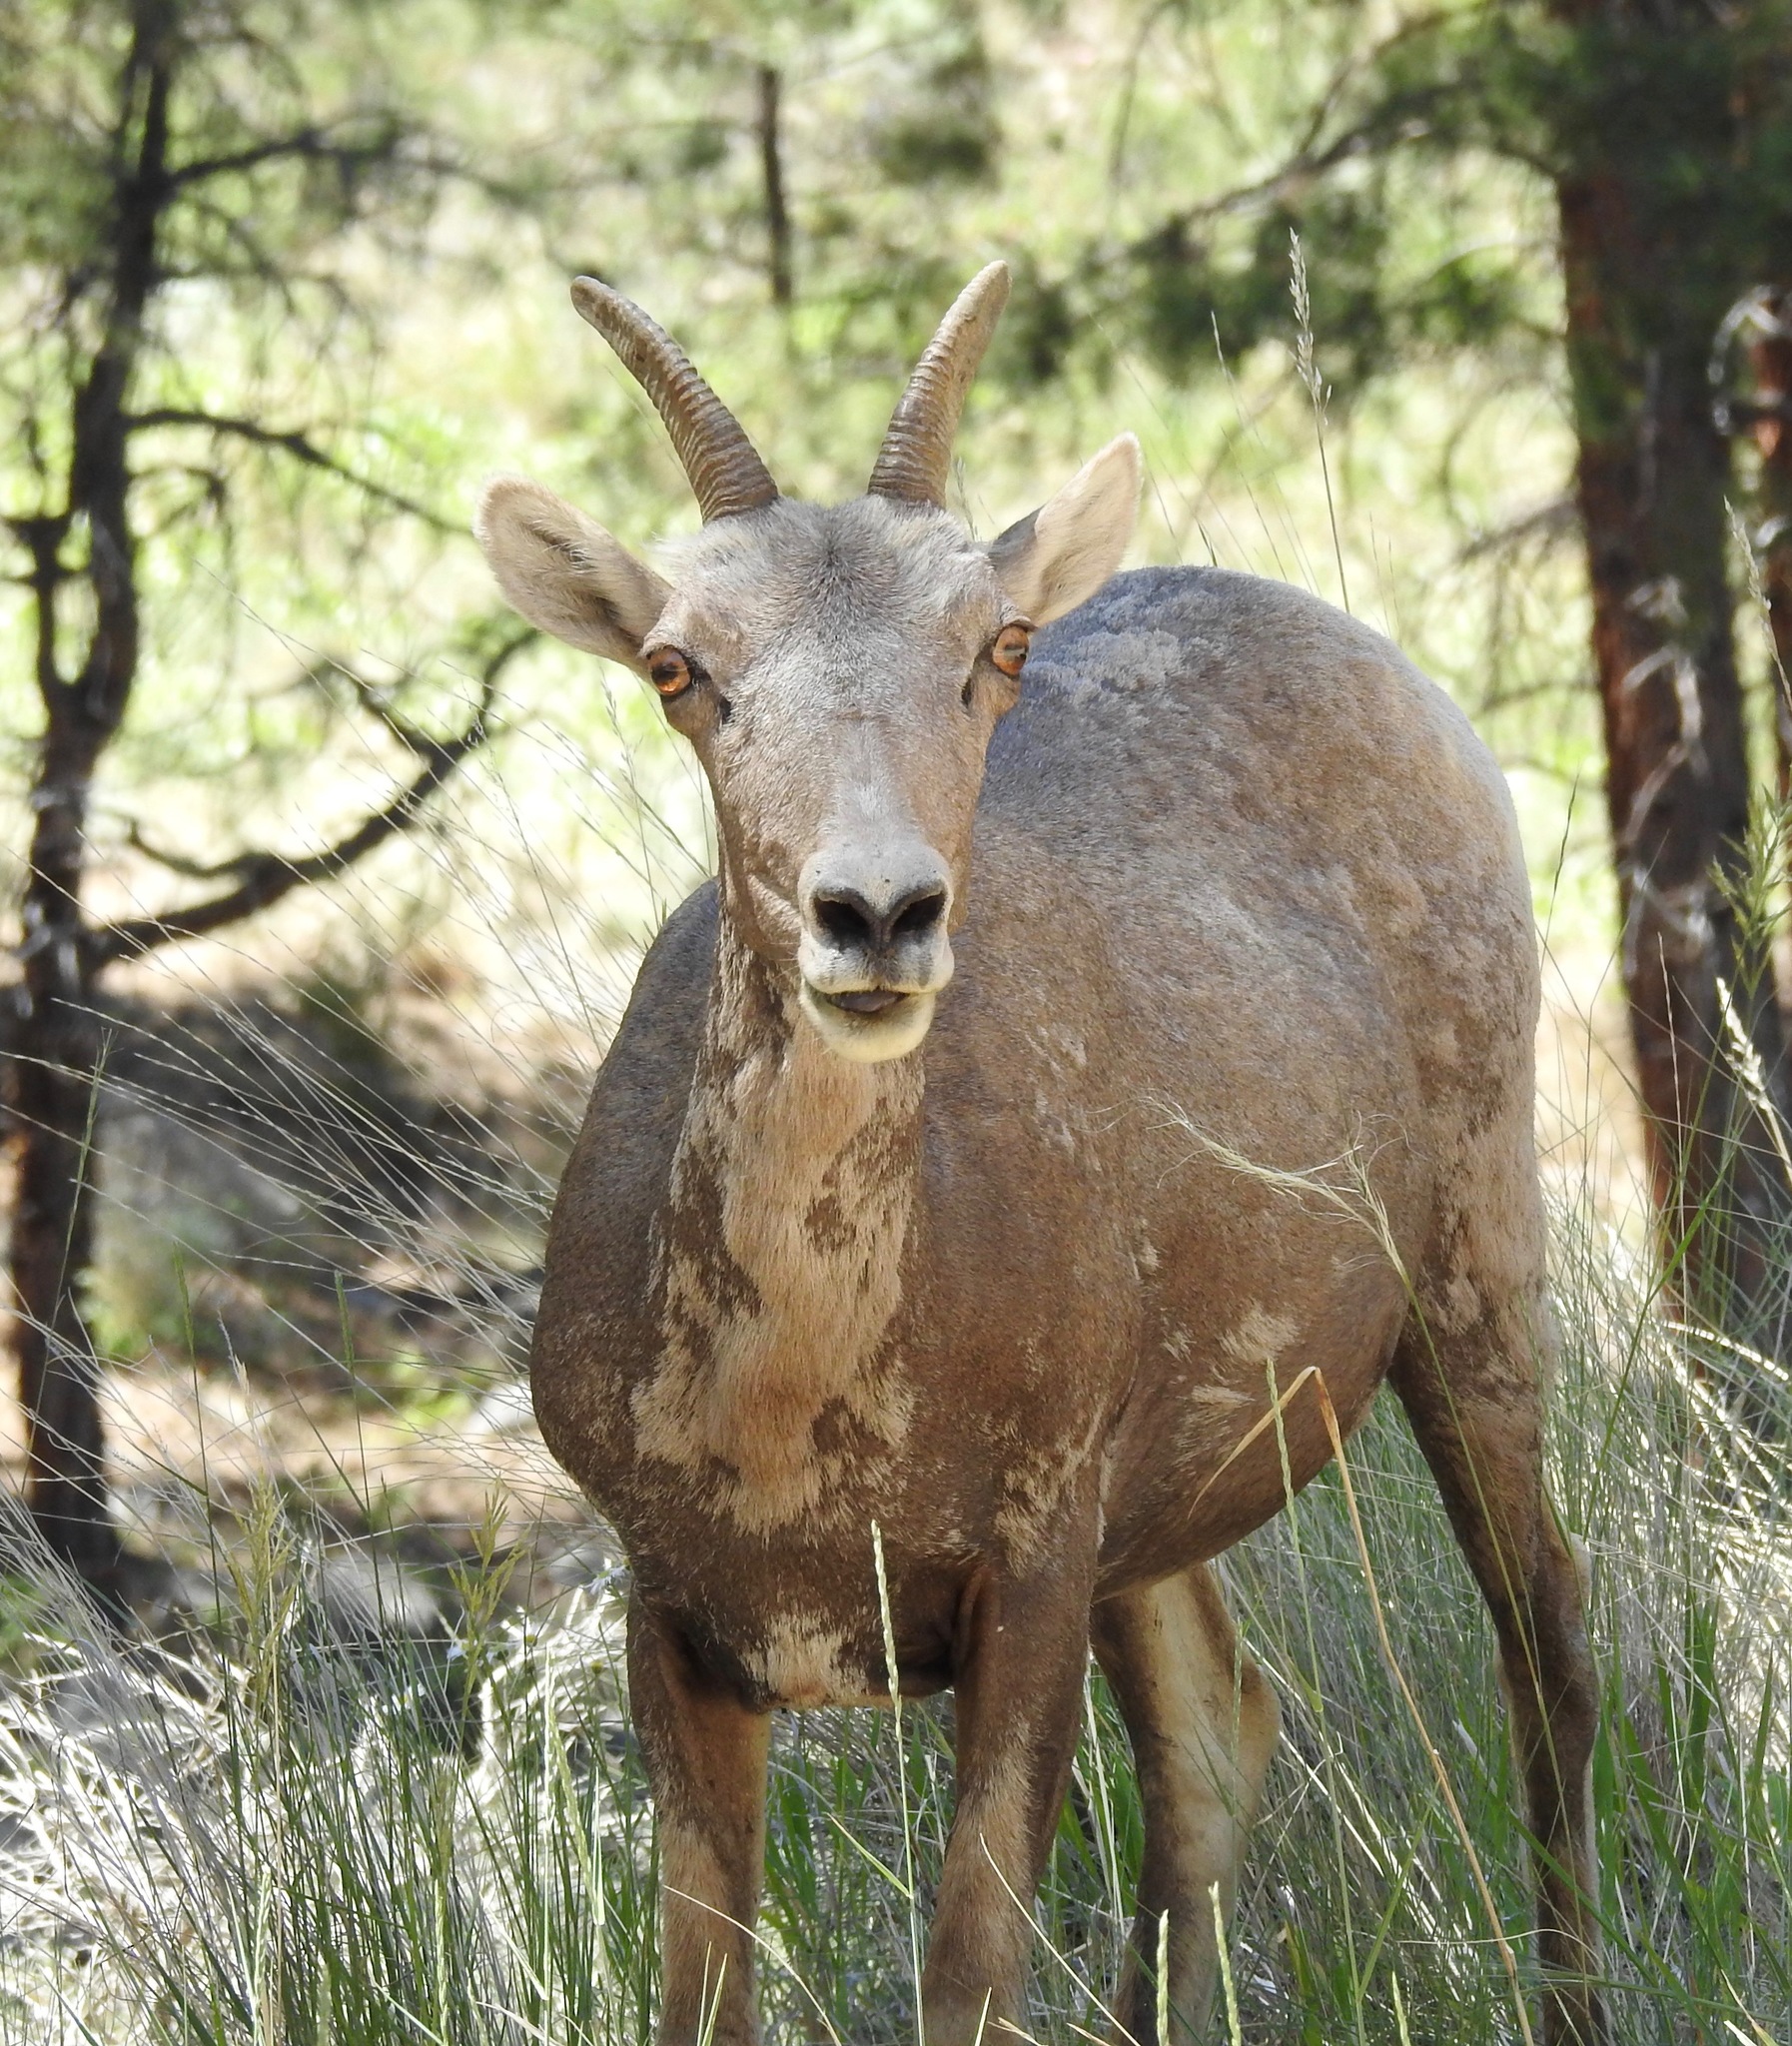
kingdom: Animalia
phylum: Chordata
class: Mammalia
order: Artiodactyla
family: Bovidae
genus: Ovis
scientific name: Ovis canadensis
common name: Bighorn sheep
